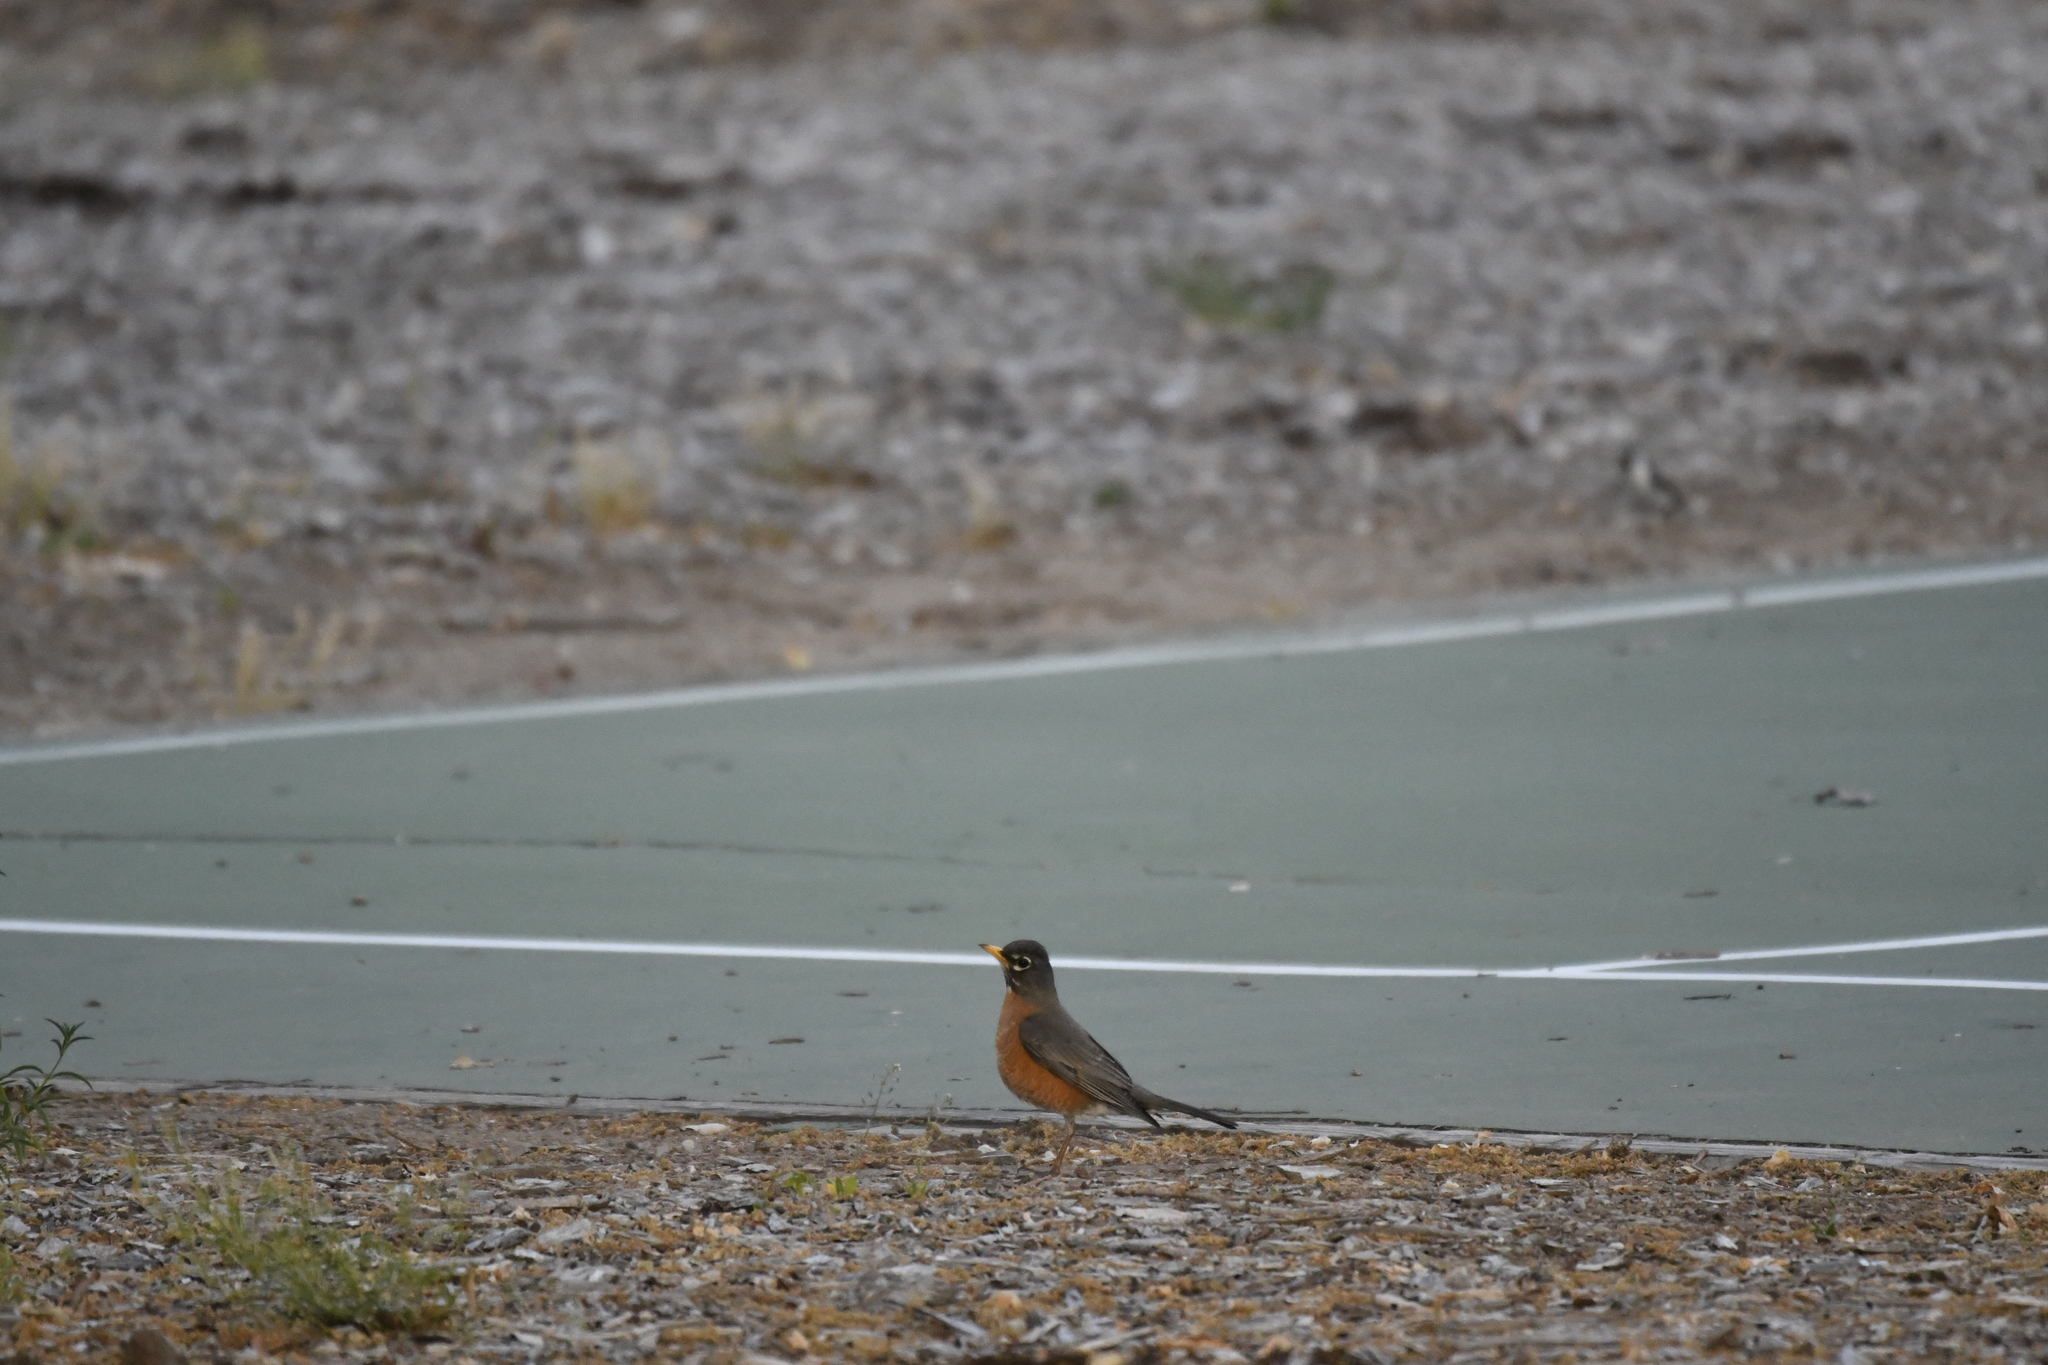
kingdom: Animalia
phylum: Chordata
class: Aves
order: Passeriformes
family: Turdidae
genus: Turdus
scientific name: Turdus migratorius
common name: American robin
